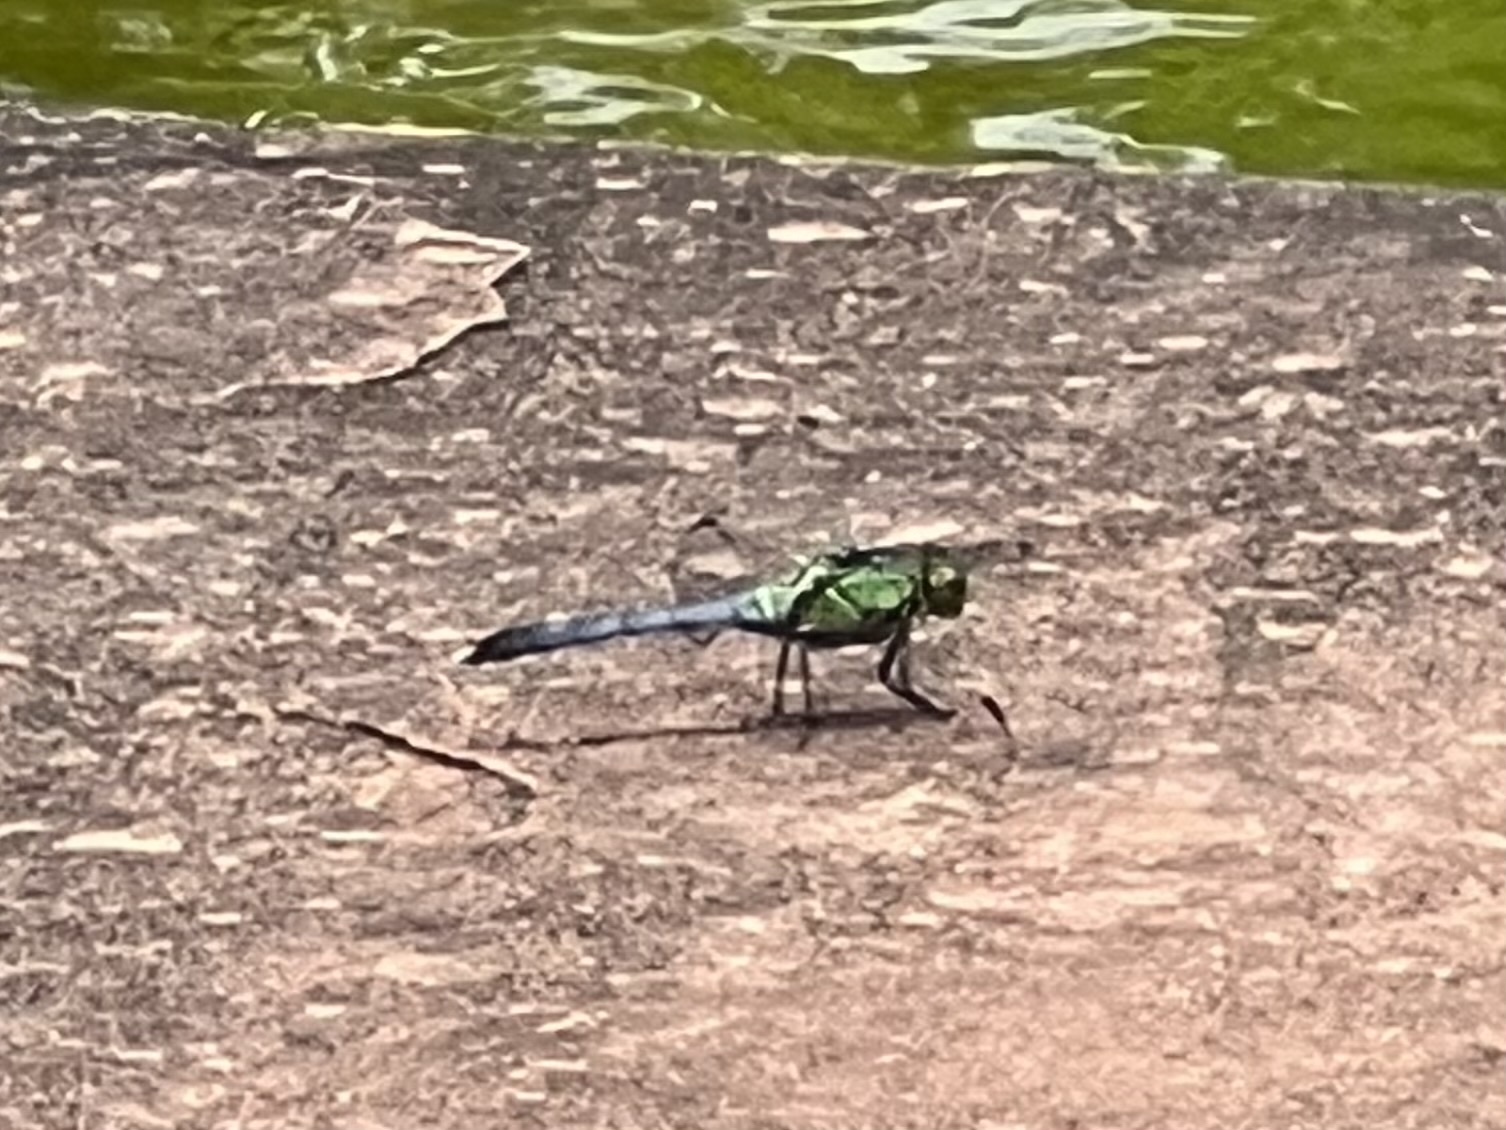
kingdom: Animalia
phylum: Arthropoda
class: Insecta
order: Odonata
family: Libellulidae
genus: Erythemis
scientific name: Erythemis simplicicollis
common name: Eastern pondhawk
